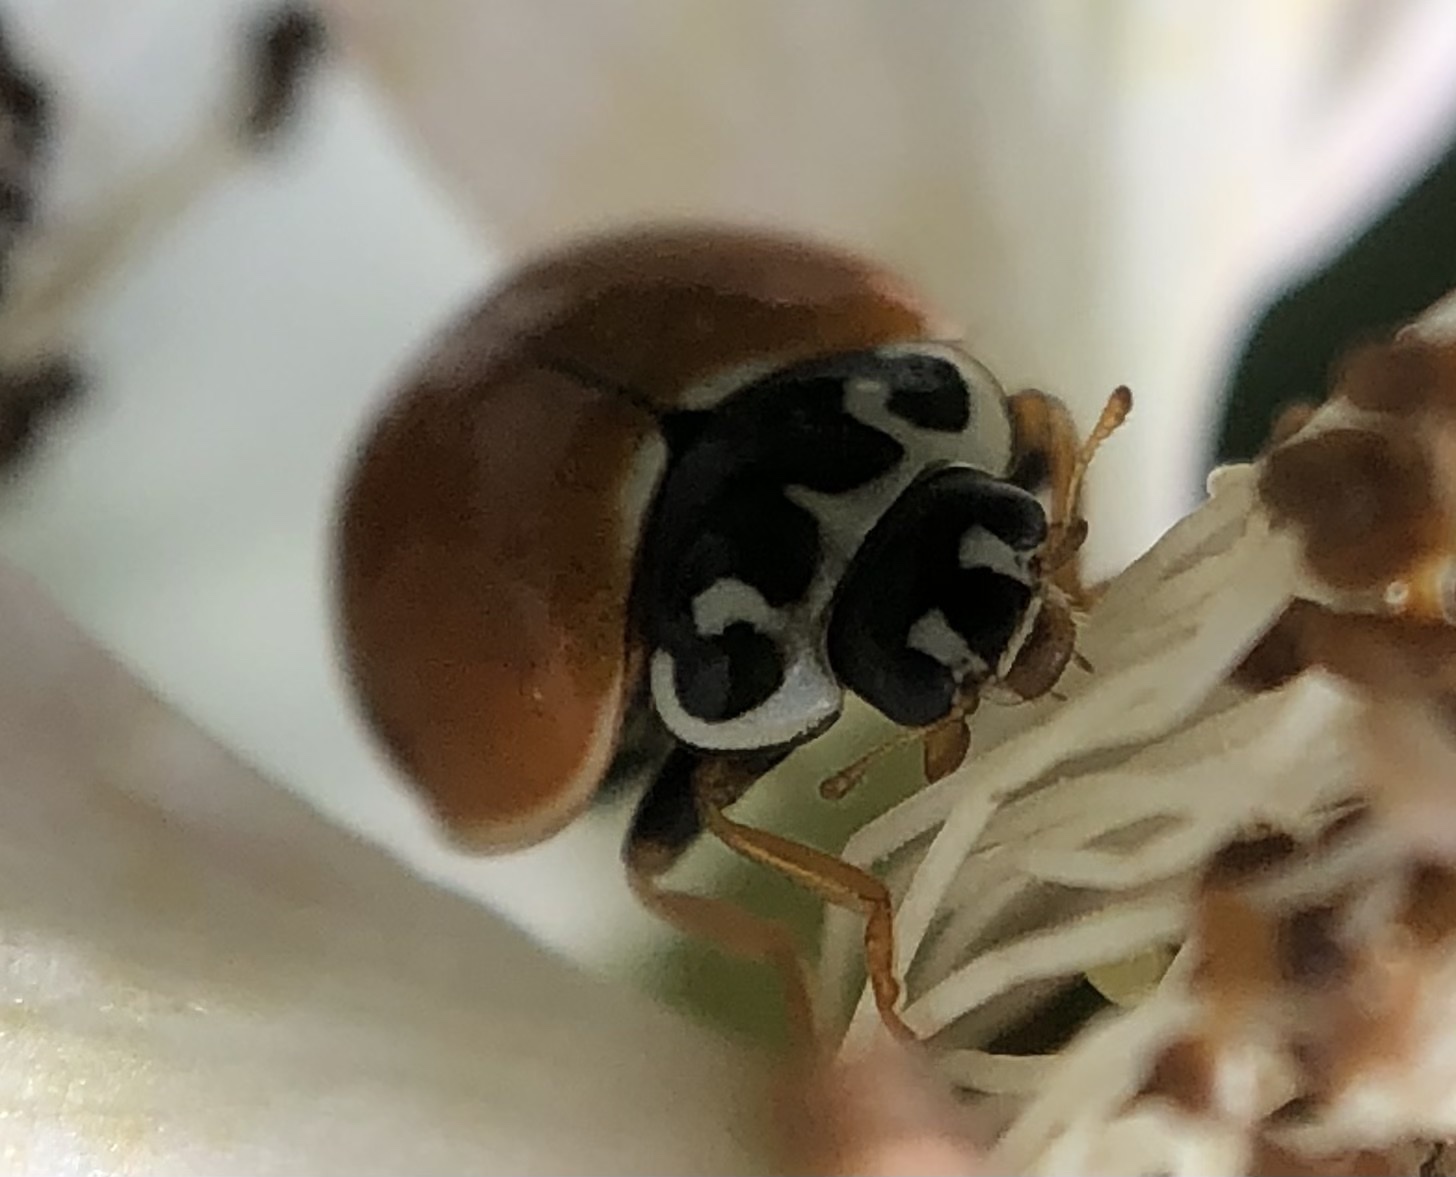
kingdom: Animalia
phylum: Arthropoda
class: Insecta
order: Coleoptera
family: Coccinellidae
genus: Cycloneda
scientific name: Cycloneda munda
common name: Polished lady beetle
